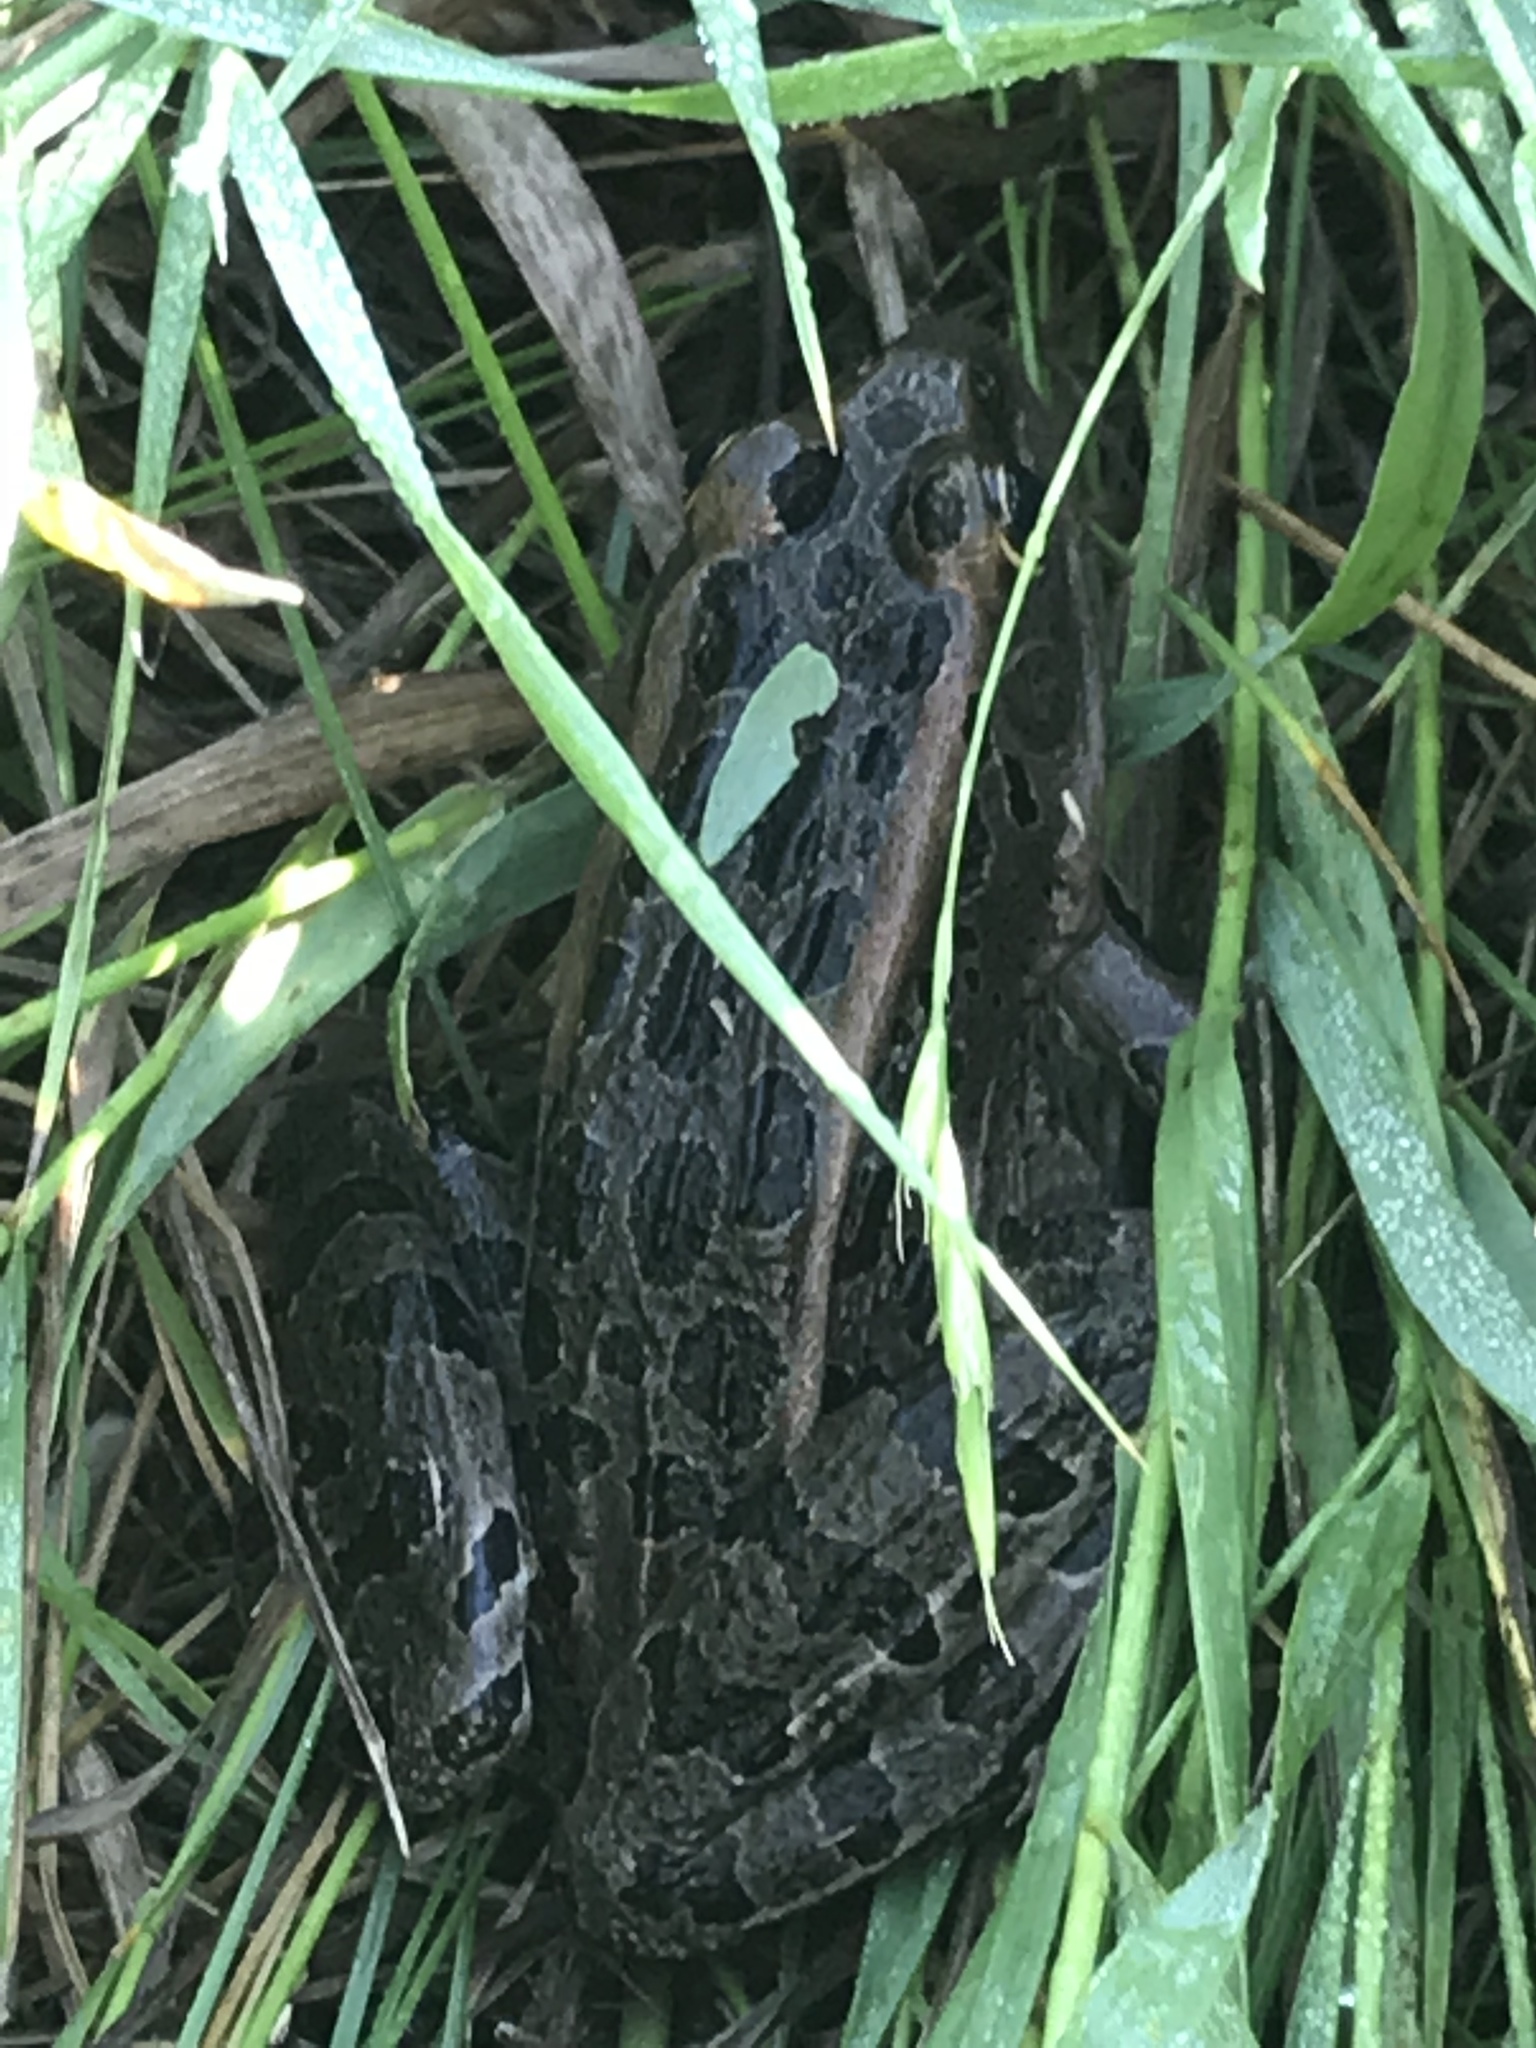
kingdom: Animalia
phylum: Chordata
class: Amphibia
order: Anura
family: Ranidae
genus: Lithobates
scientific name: Lithobates pipiens
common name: Northern leopard frog
